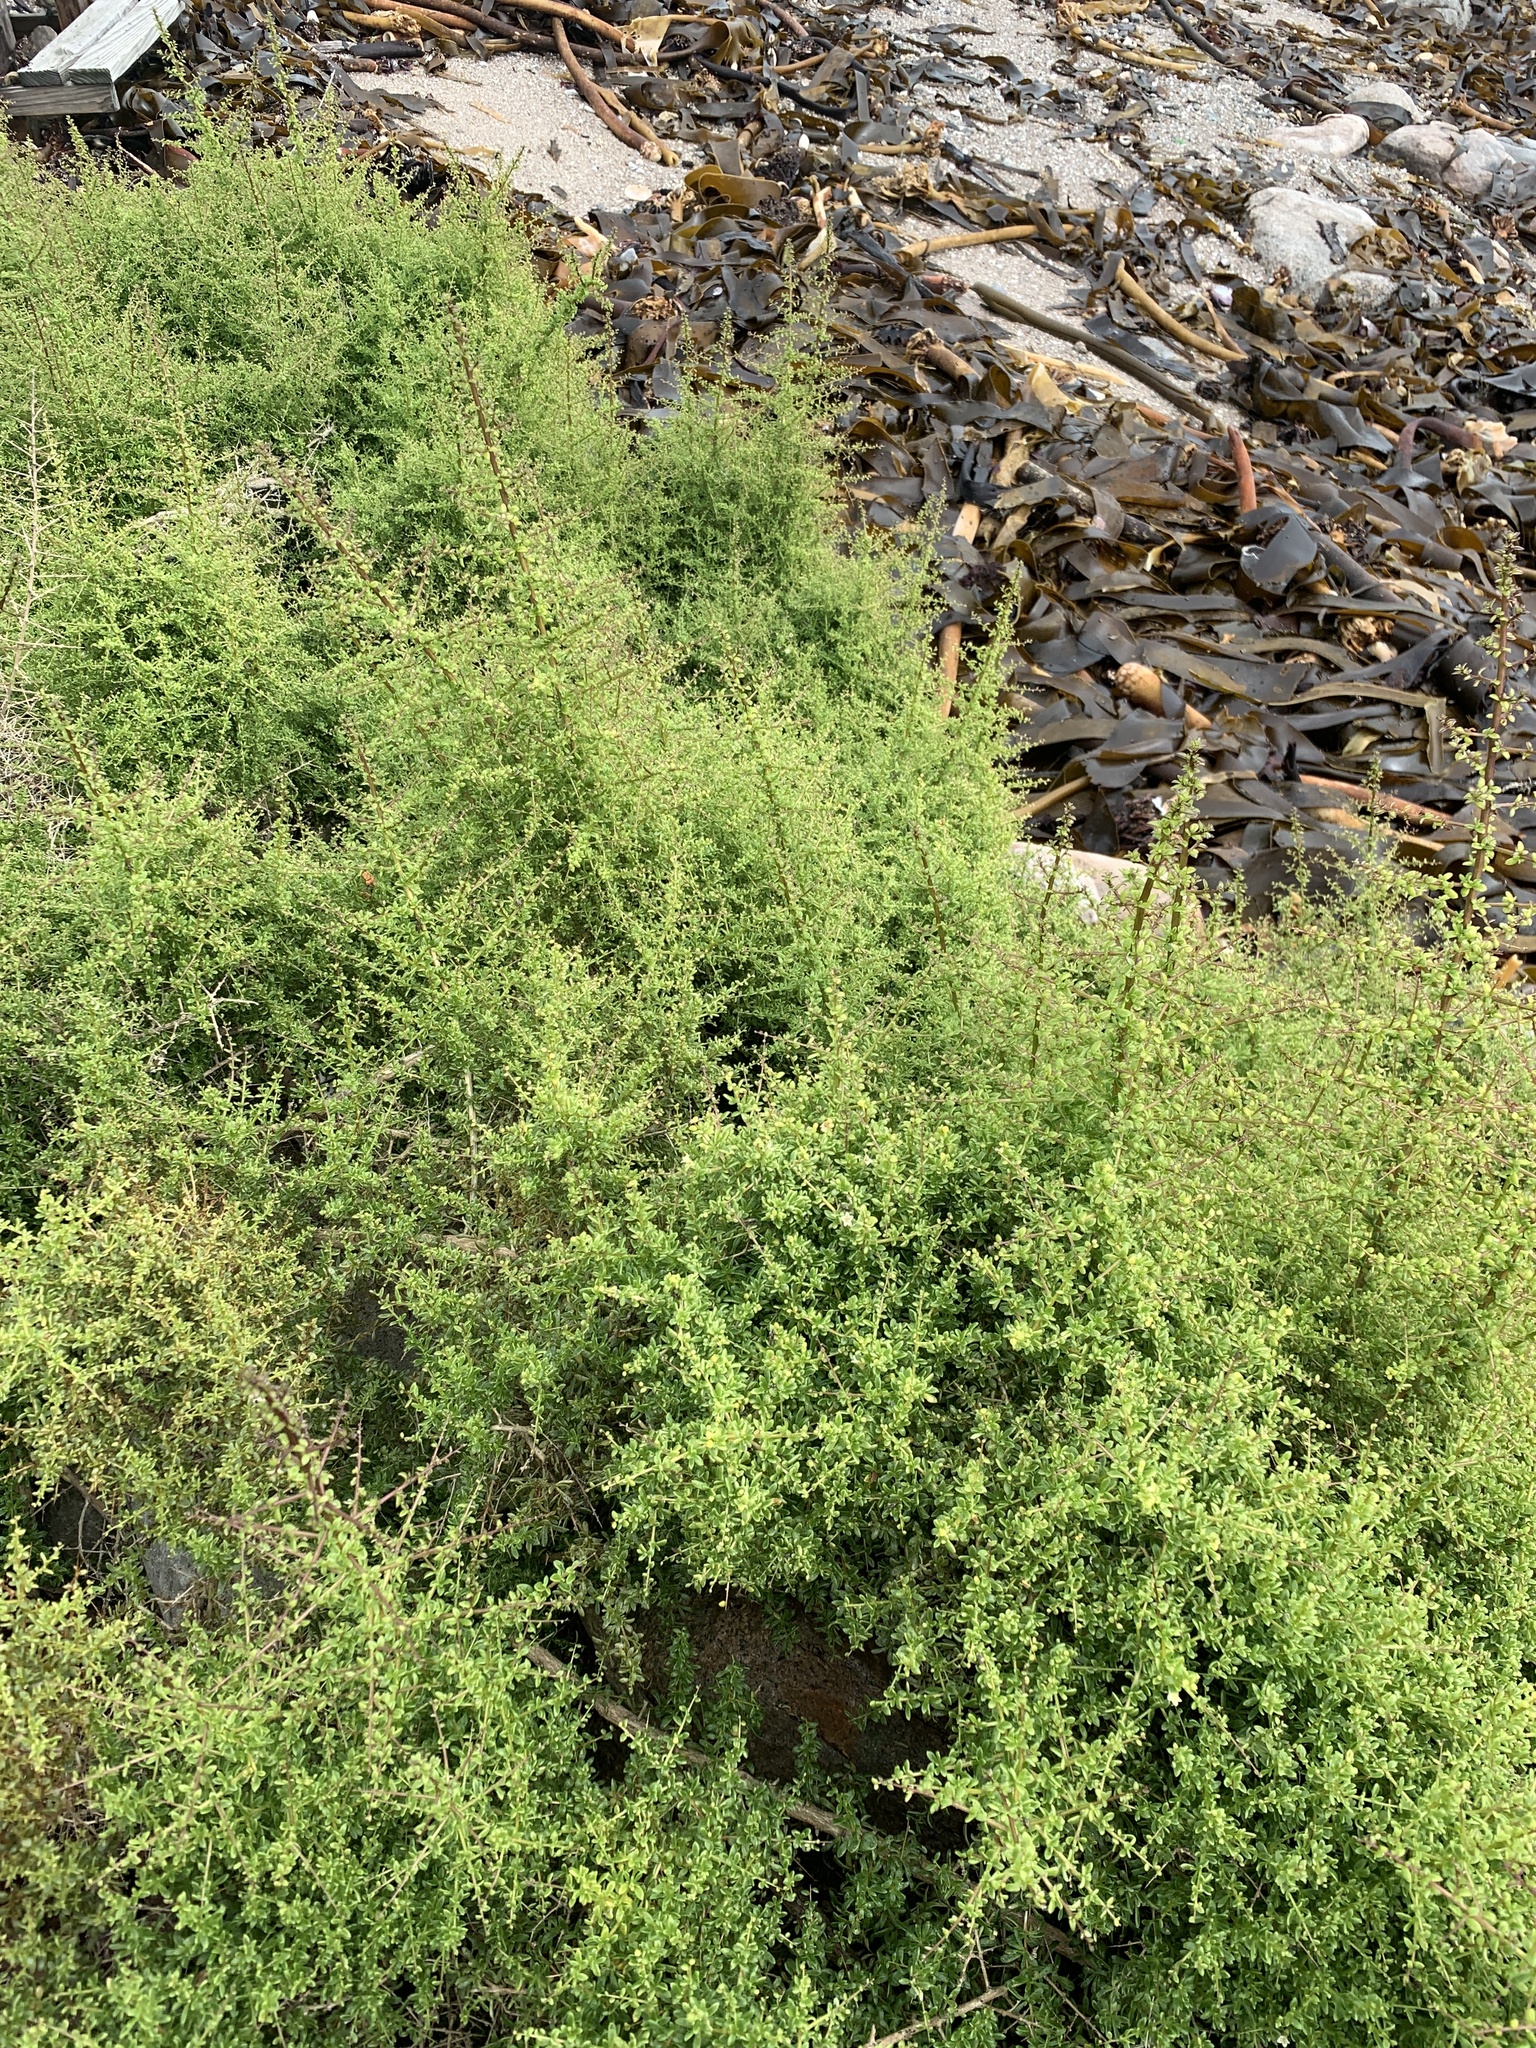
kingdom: Plantae
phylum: Tracheophyta
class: Magnoliopsida
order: Solanales
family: Solanaceae
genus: Lycium
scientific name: Lycium tetrandrum
